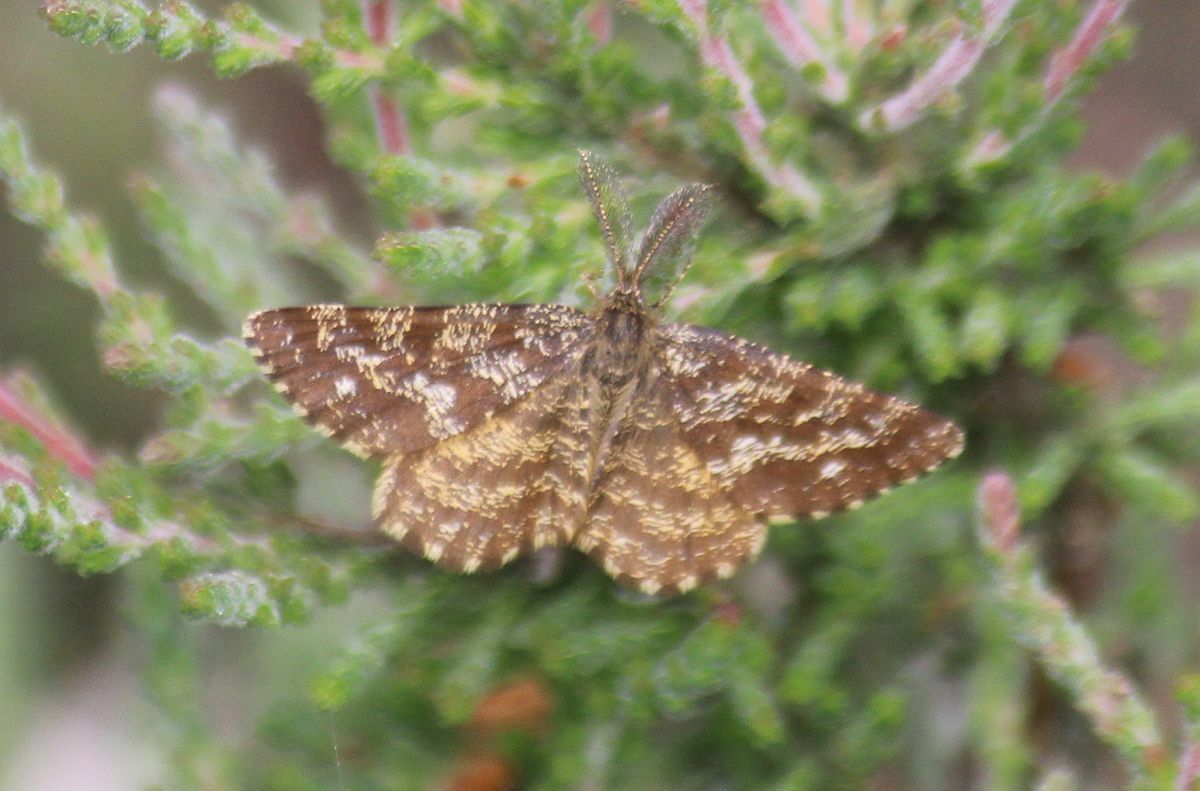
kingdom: Animalia
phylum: Arthropoda
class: Insecta
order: Lepidoptera
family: Geometridae
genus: Ematurga
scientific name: Ematurga atomaria
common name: Common heath
